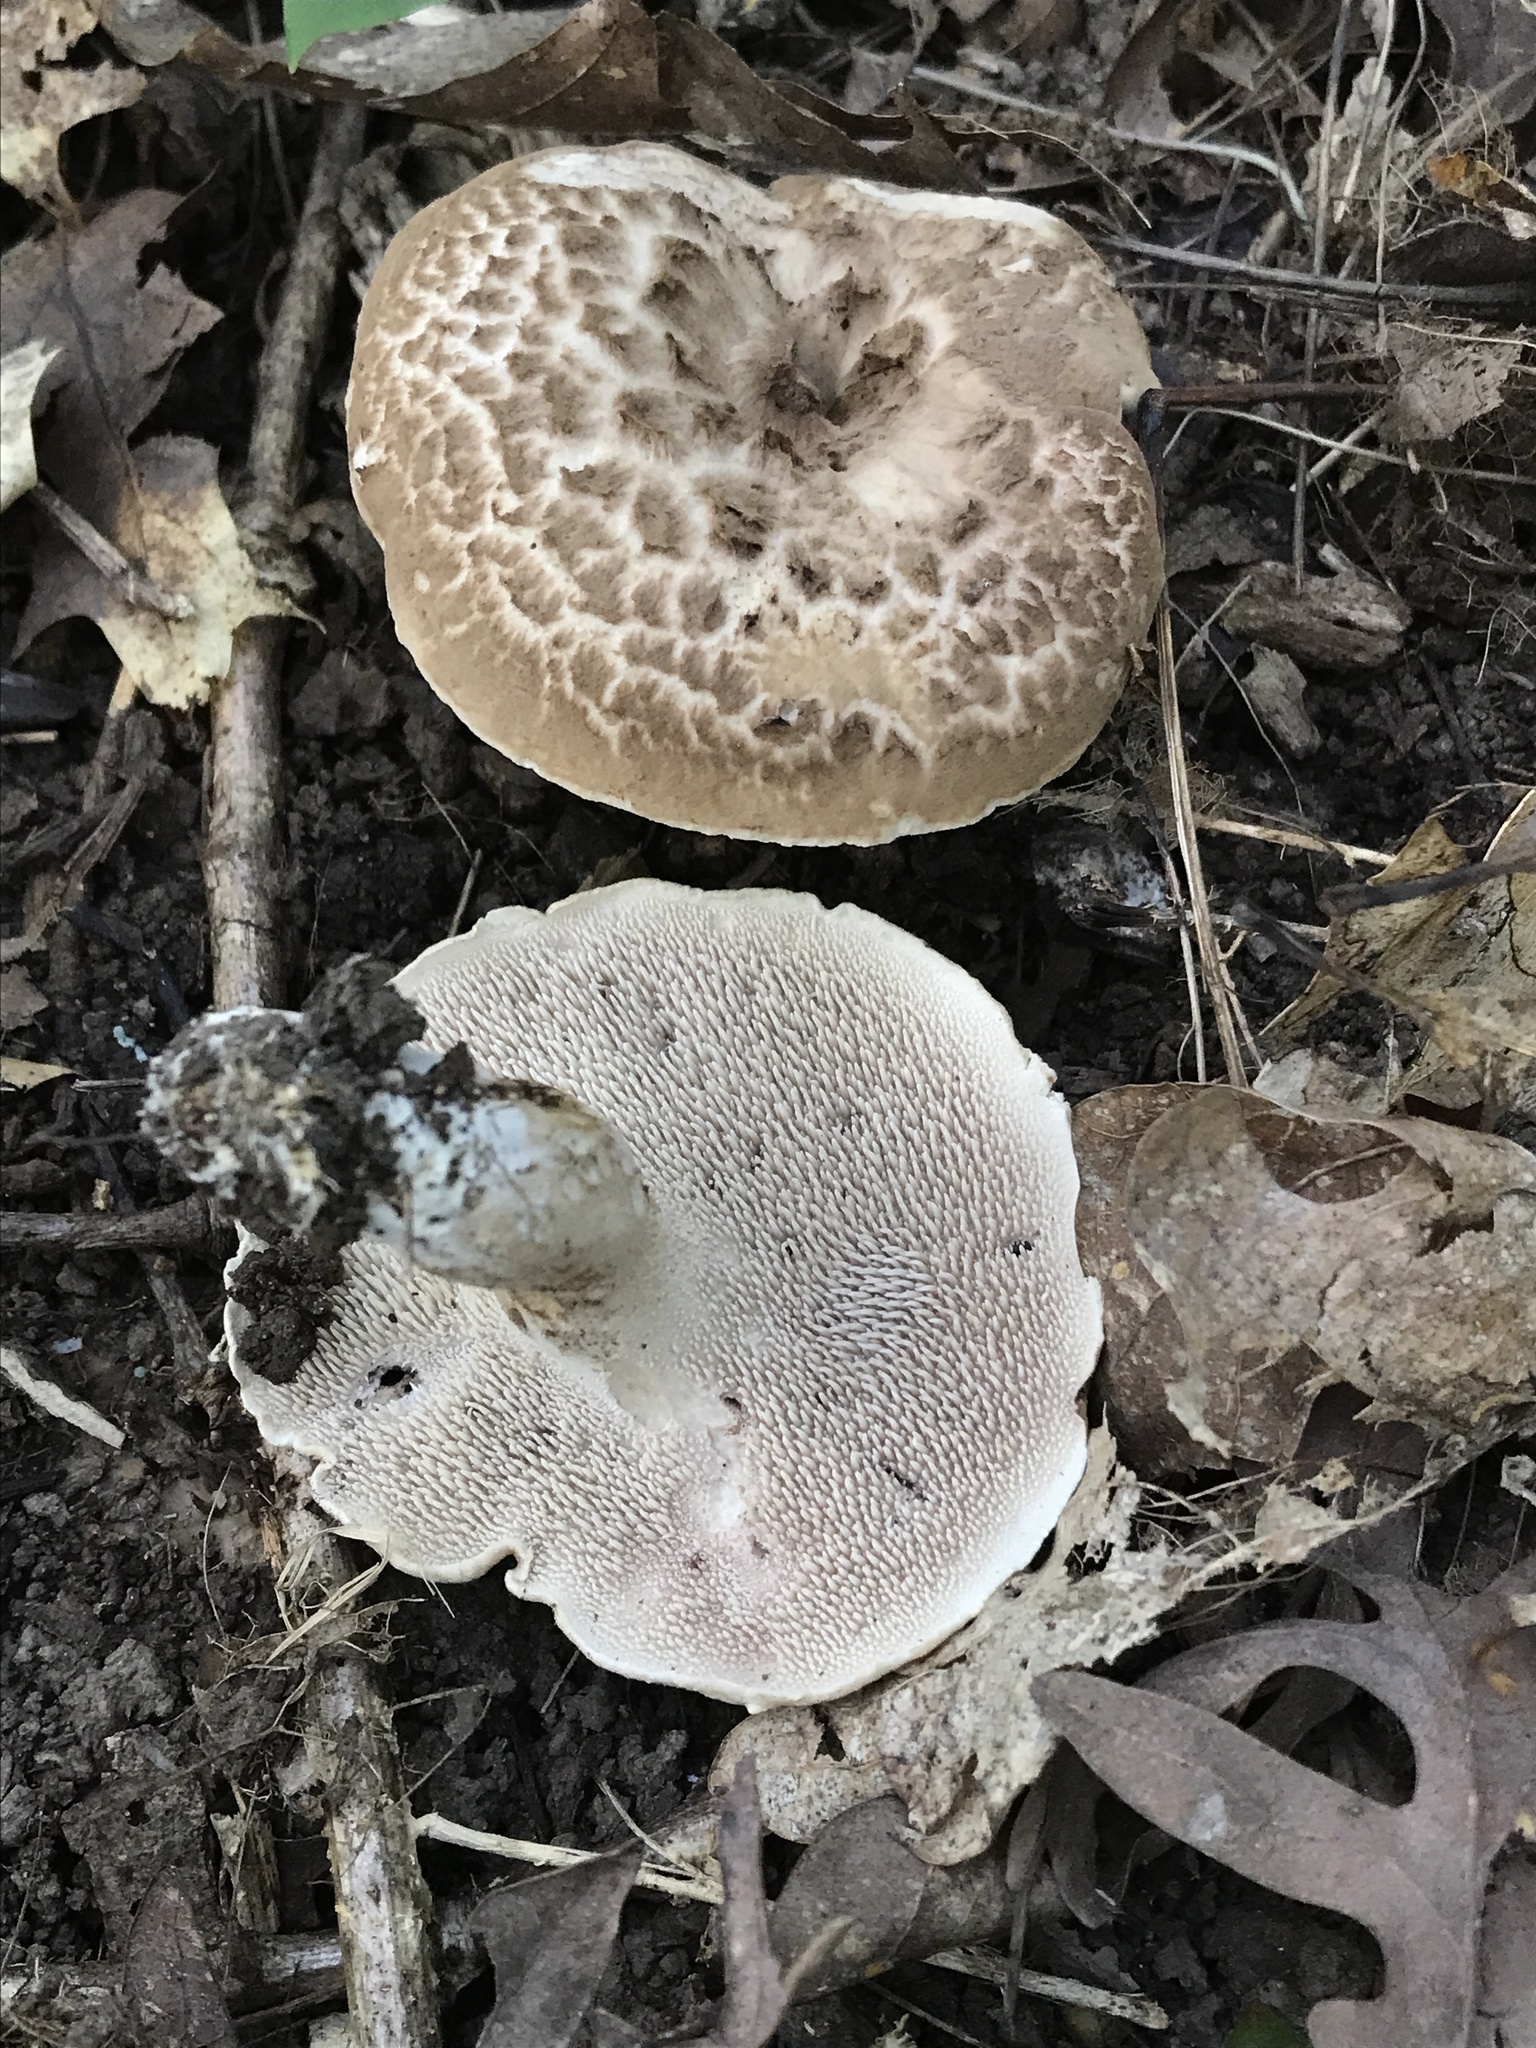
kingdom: Fungi
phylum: Basidiomycota
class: Agaricomycetes
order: Thelephorales
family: Bankeraceae
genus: Sarcodon
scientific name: Sarcodon quercinofibulatus
